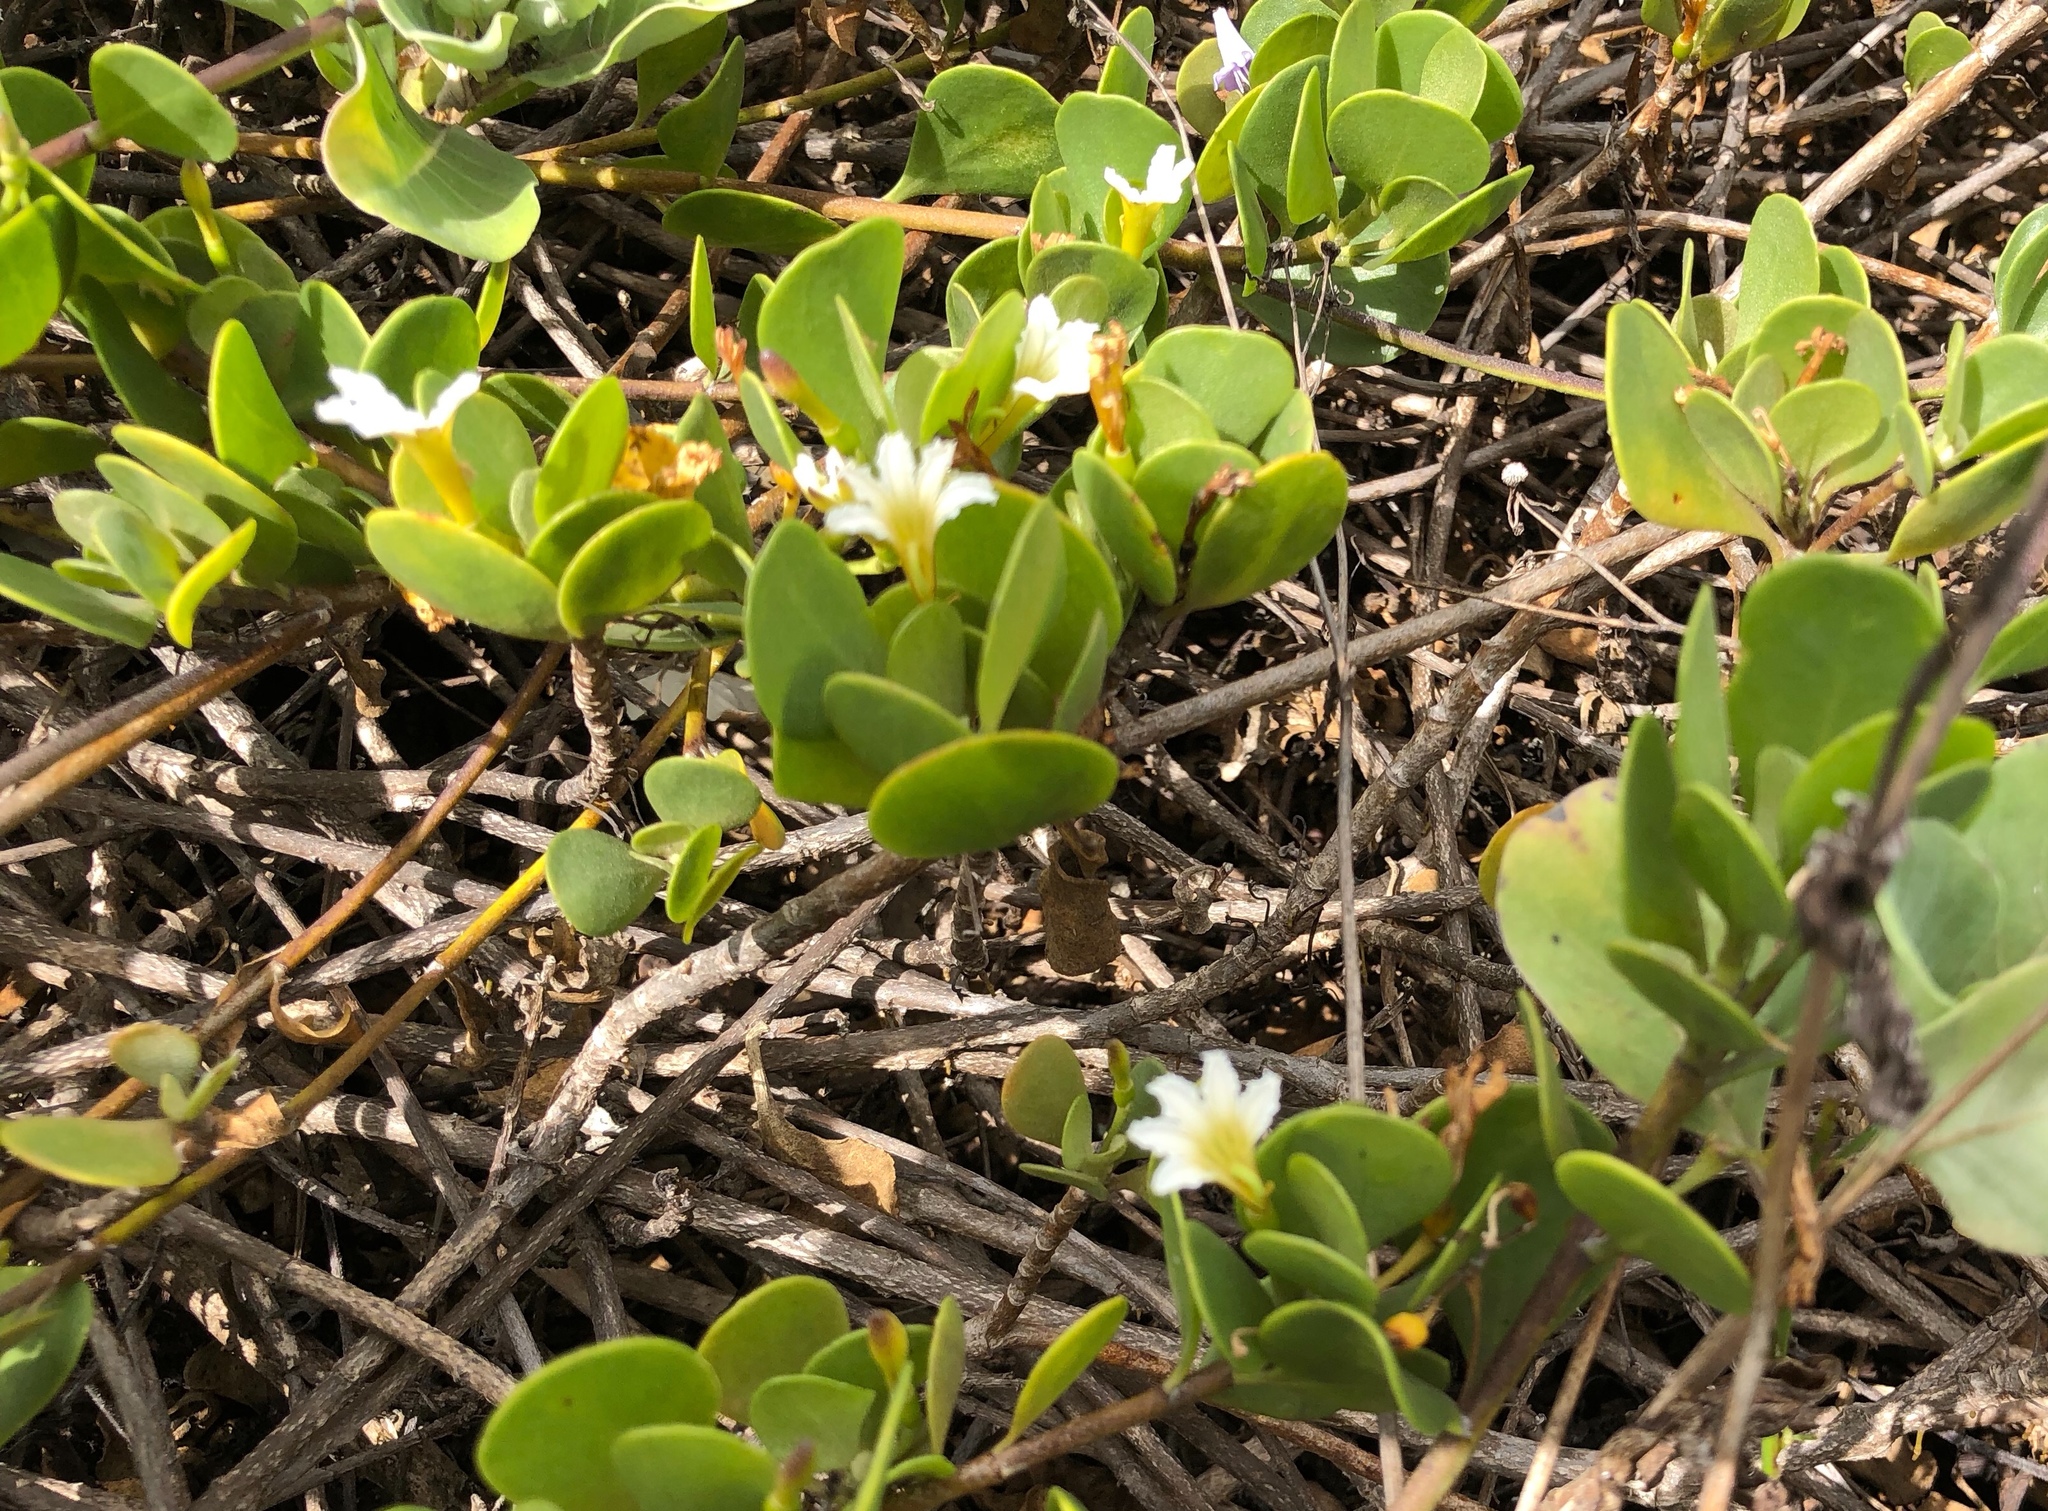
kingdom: Plantae
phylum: Tracheophyta
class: Magnoliopsida
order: Asterales
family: Goodeniaceae
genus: Scaevola
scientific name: Scaevola coriacea
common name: Dwarf naupaka
